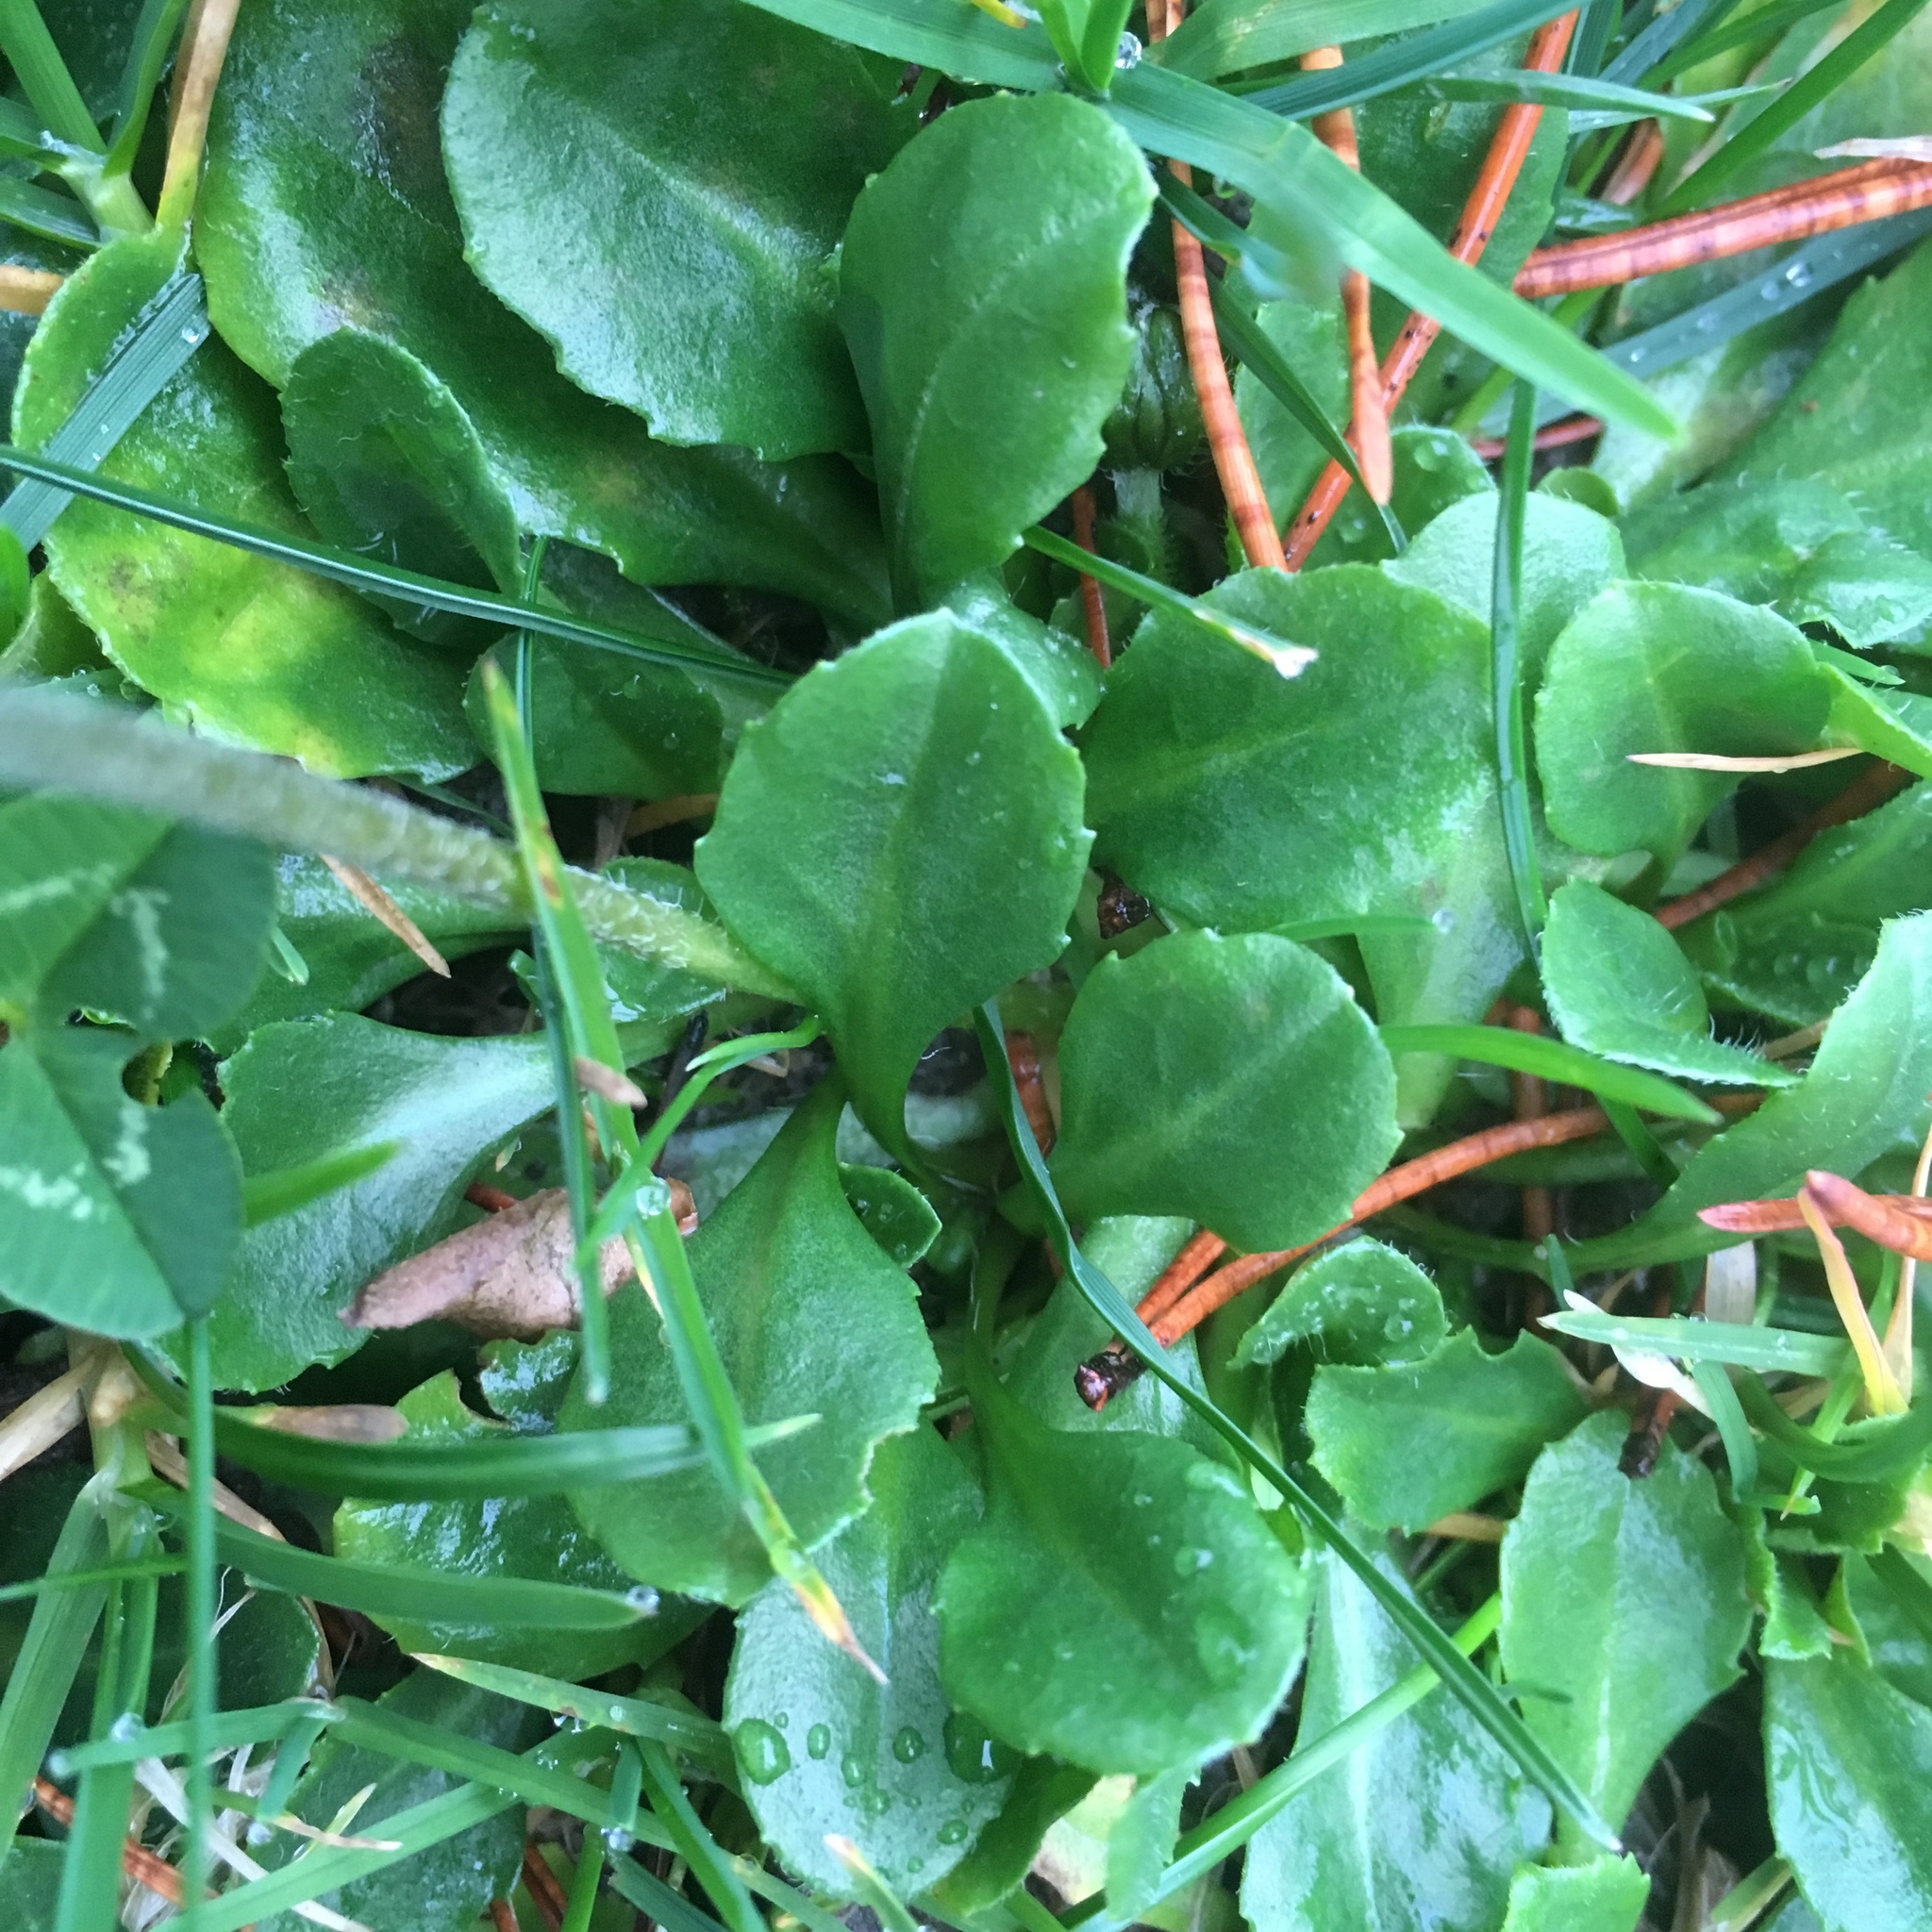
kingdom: Plantae
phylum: Tracheophyta
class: Magnoliopsida
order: Asterales
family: Asteraceae
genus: Bellis
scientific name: Bellis perennis
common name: Lawndaisy
